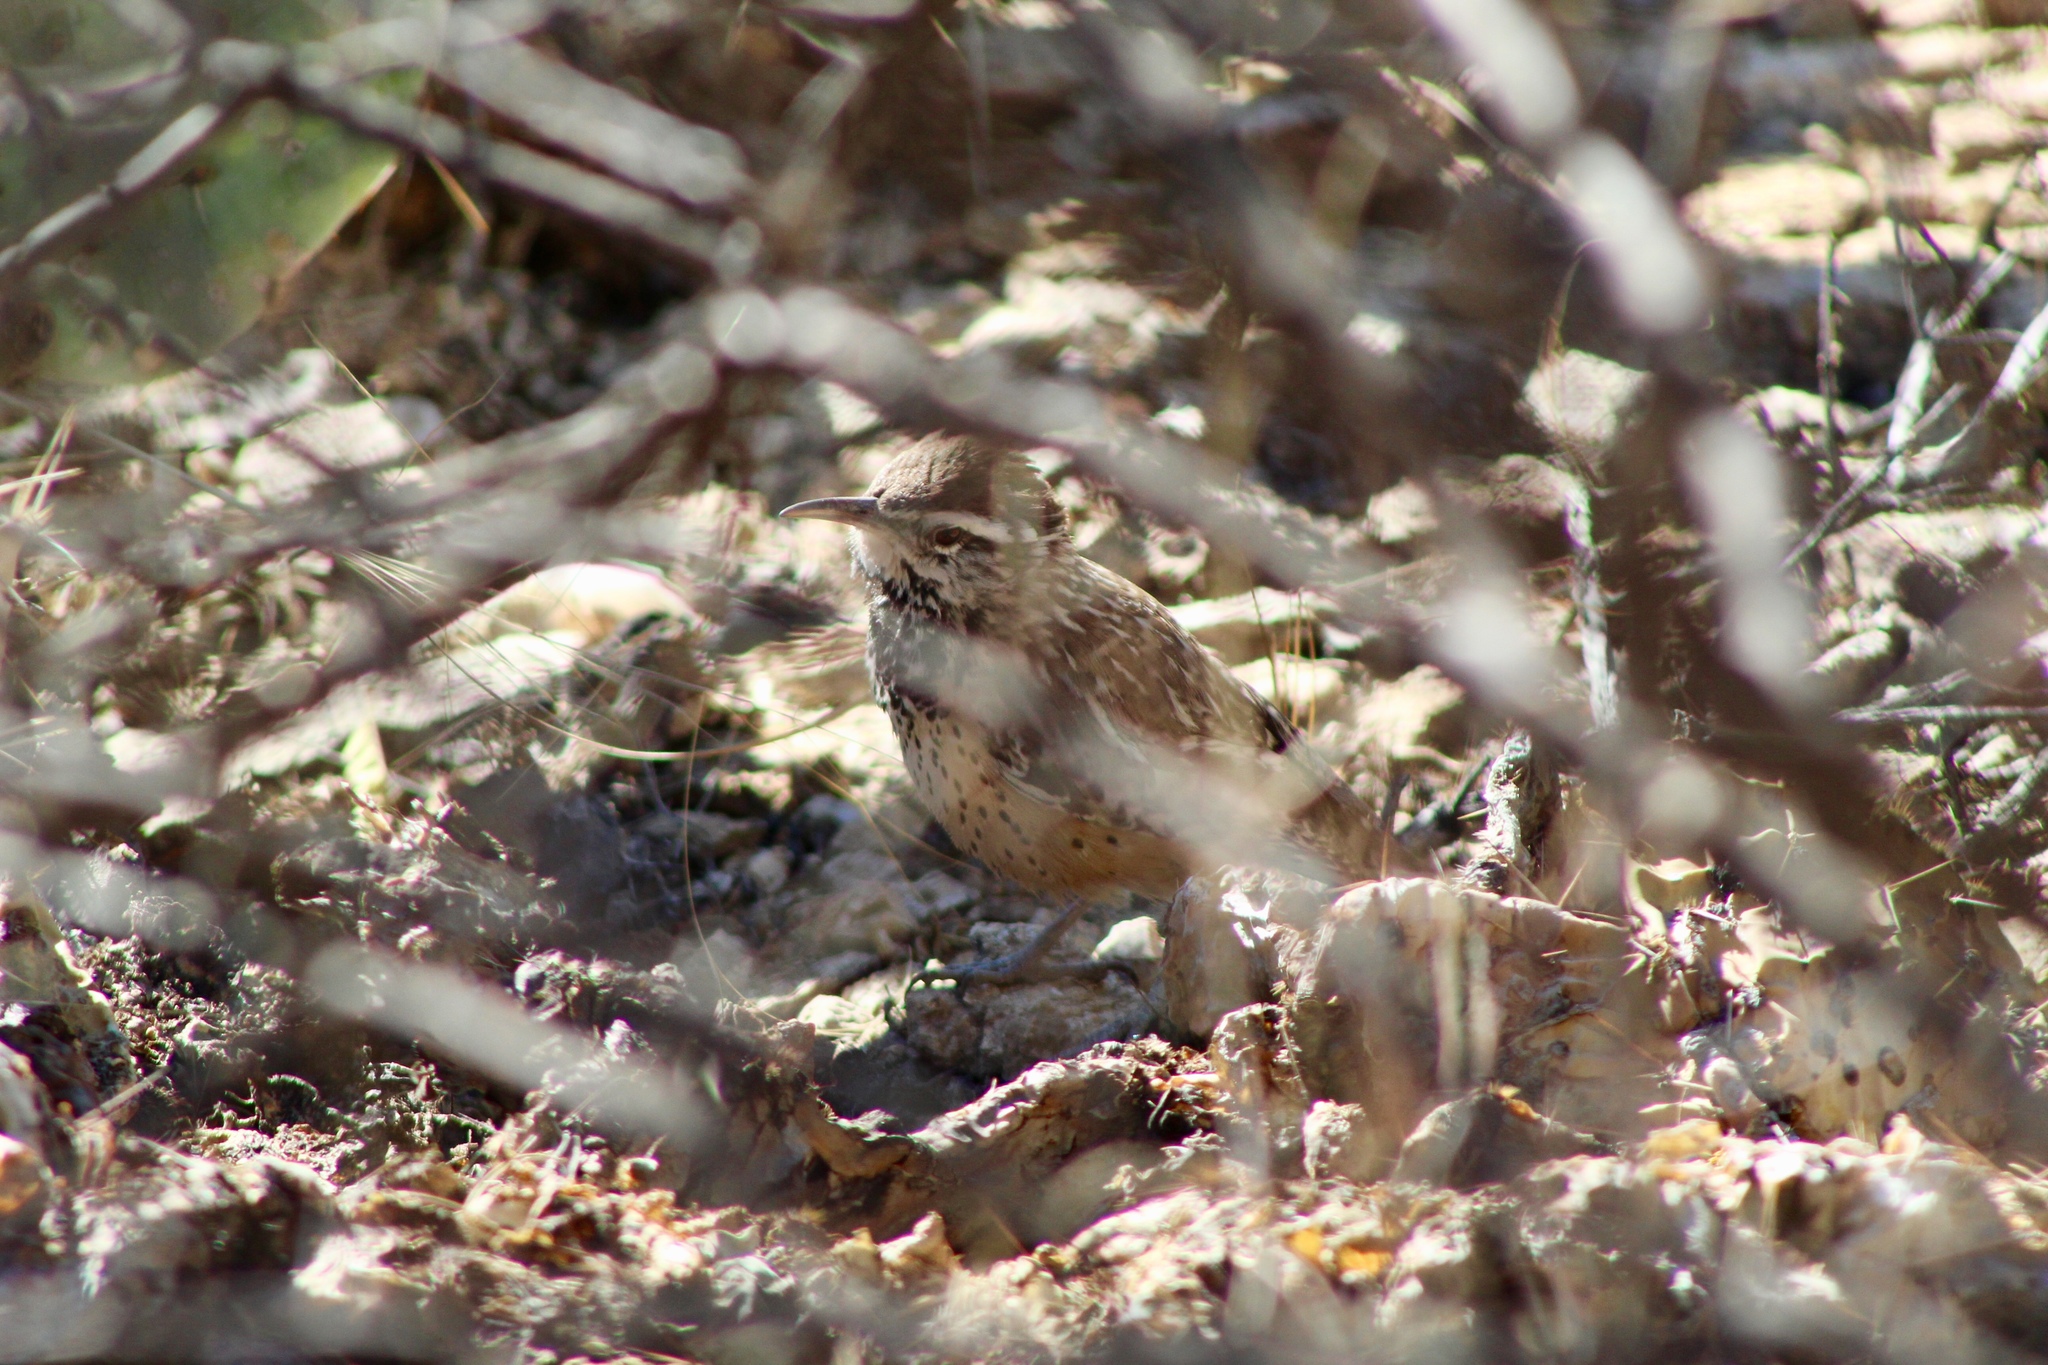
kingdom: Animalia
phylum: Chordata
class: Aves
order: Passeriformes
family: Troglodytidae
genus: Campylorhynchus
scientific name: Campylorhynchus brunneicapillus
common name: Cactus wren
